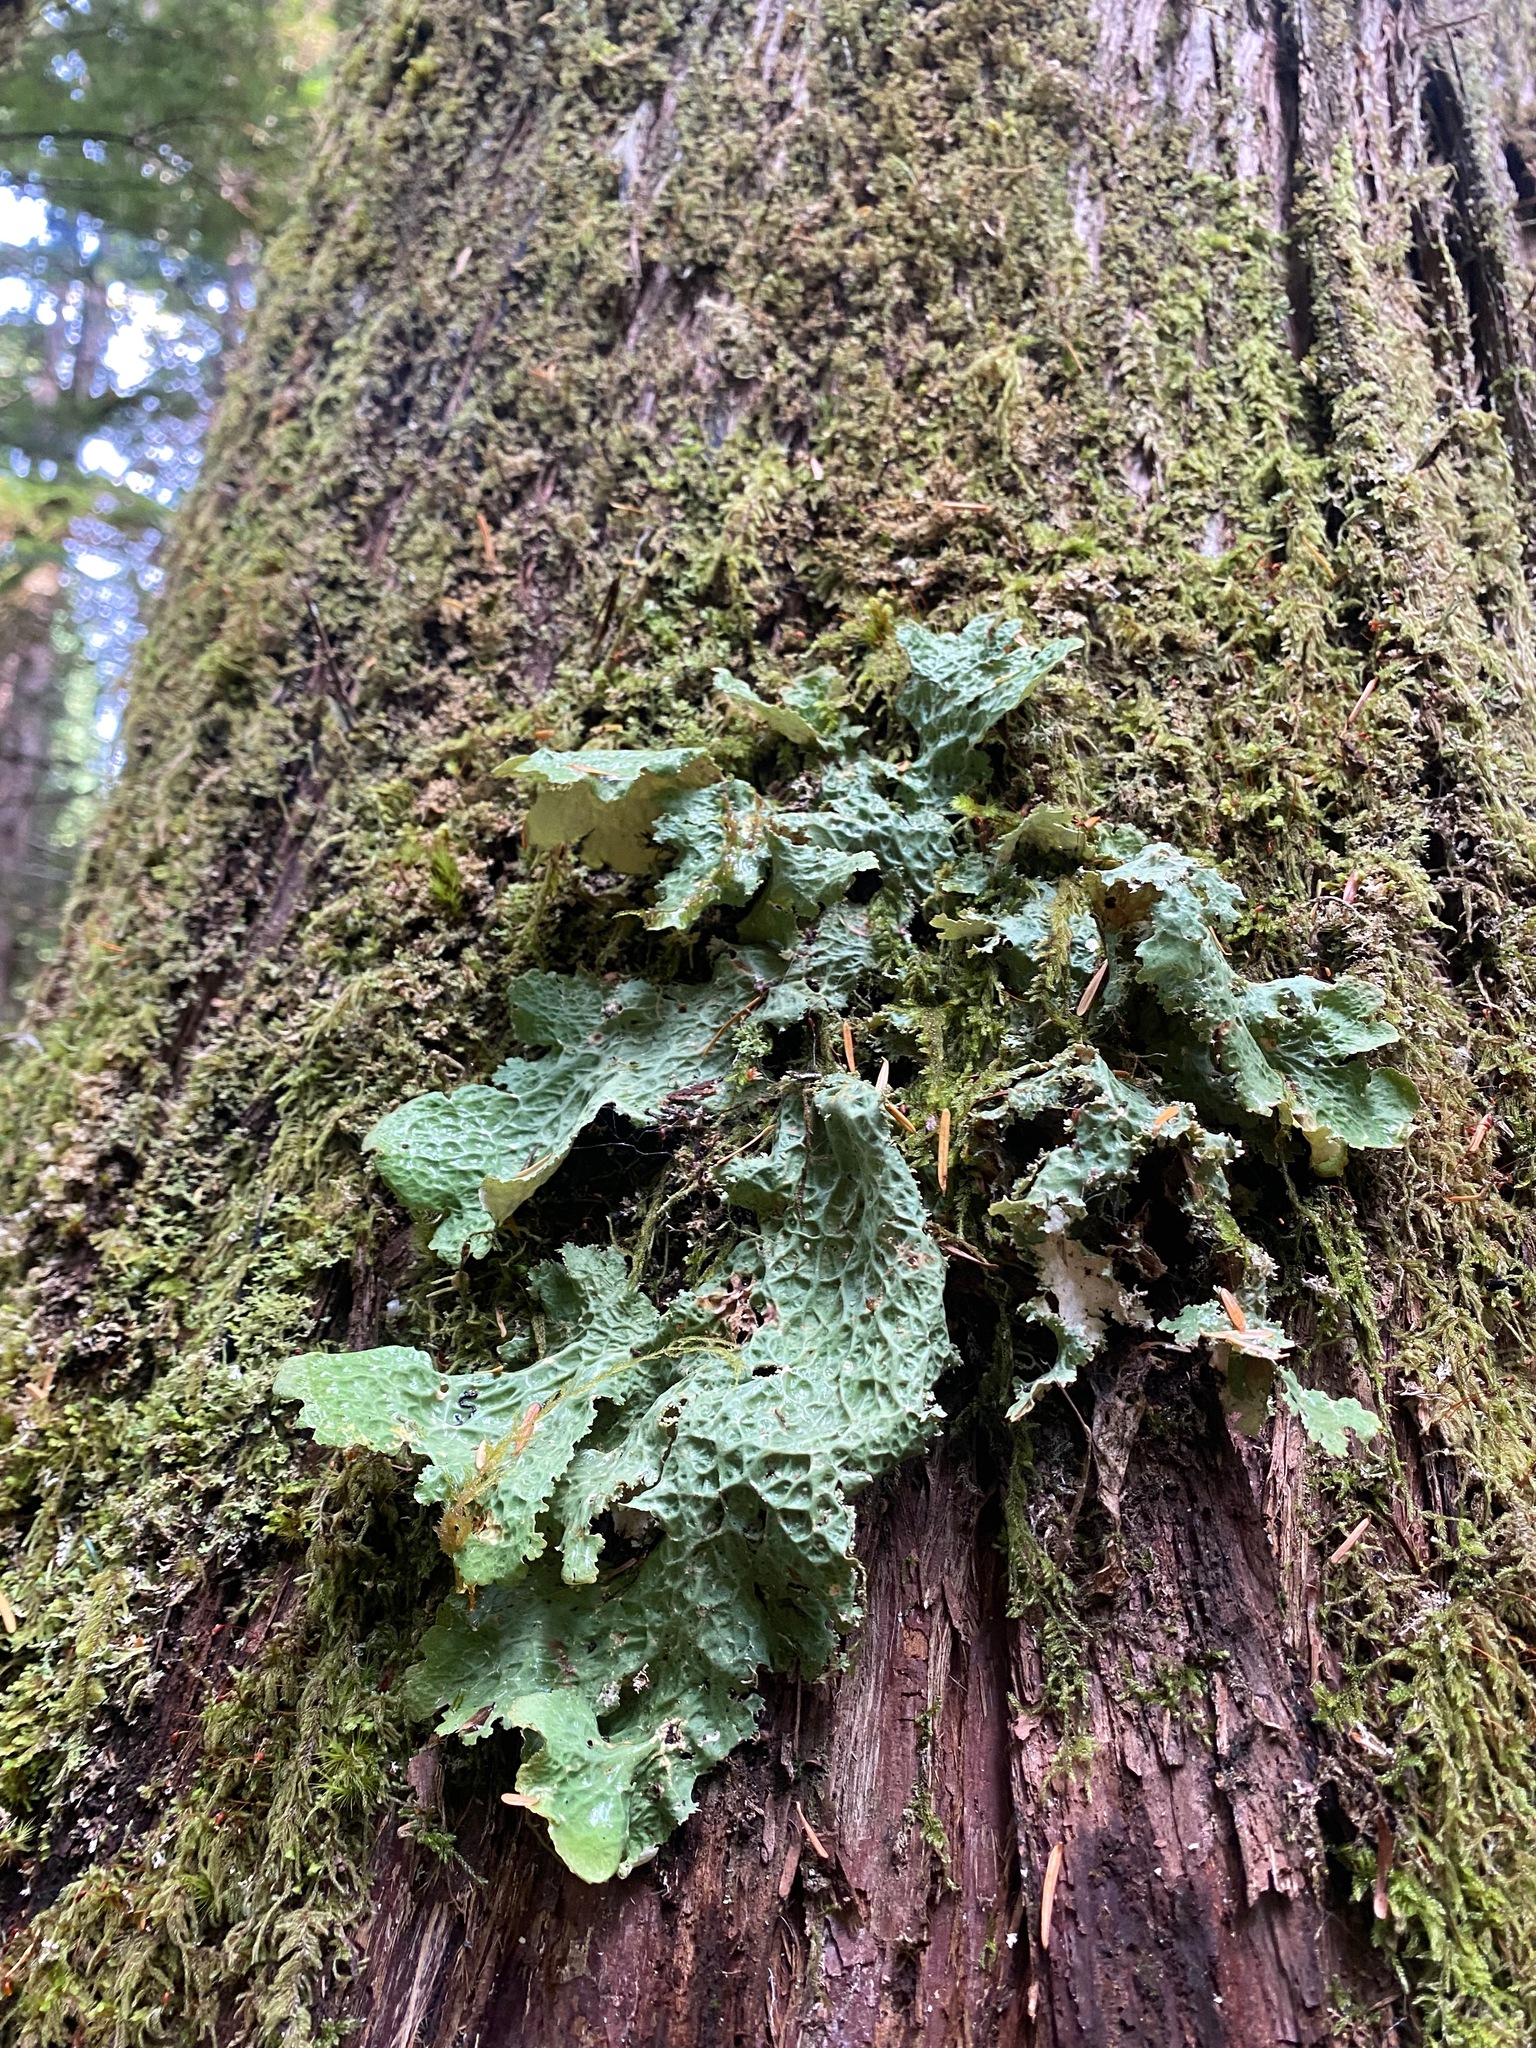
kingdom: Fungi
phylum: Ascomycota
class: Lecanoromycetes
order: Peltigerales
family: Lobariaceae
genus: Lobaria
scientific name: Lobaria oregana
